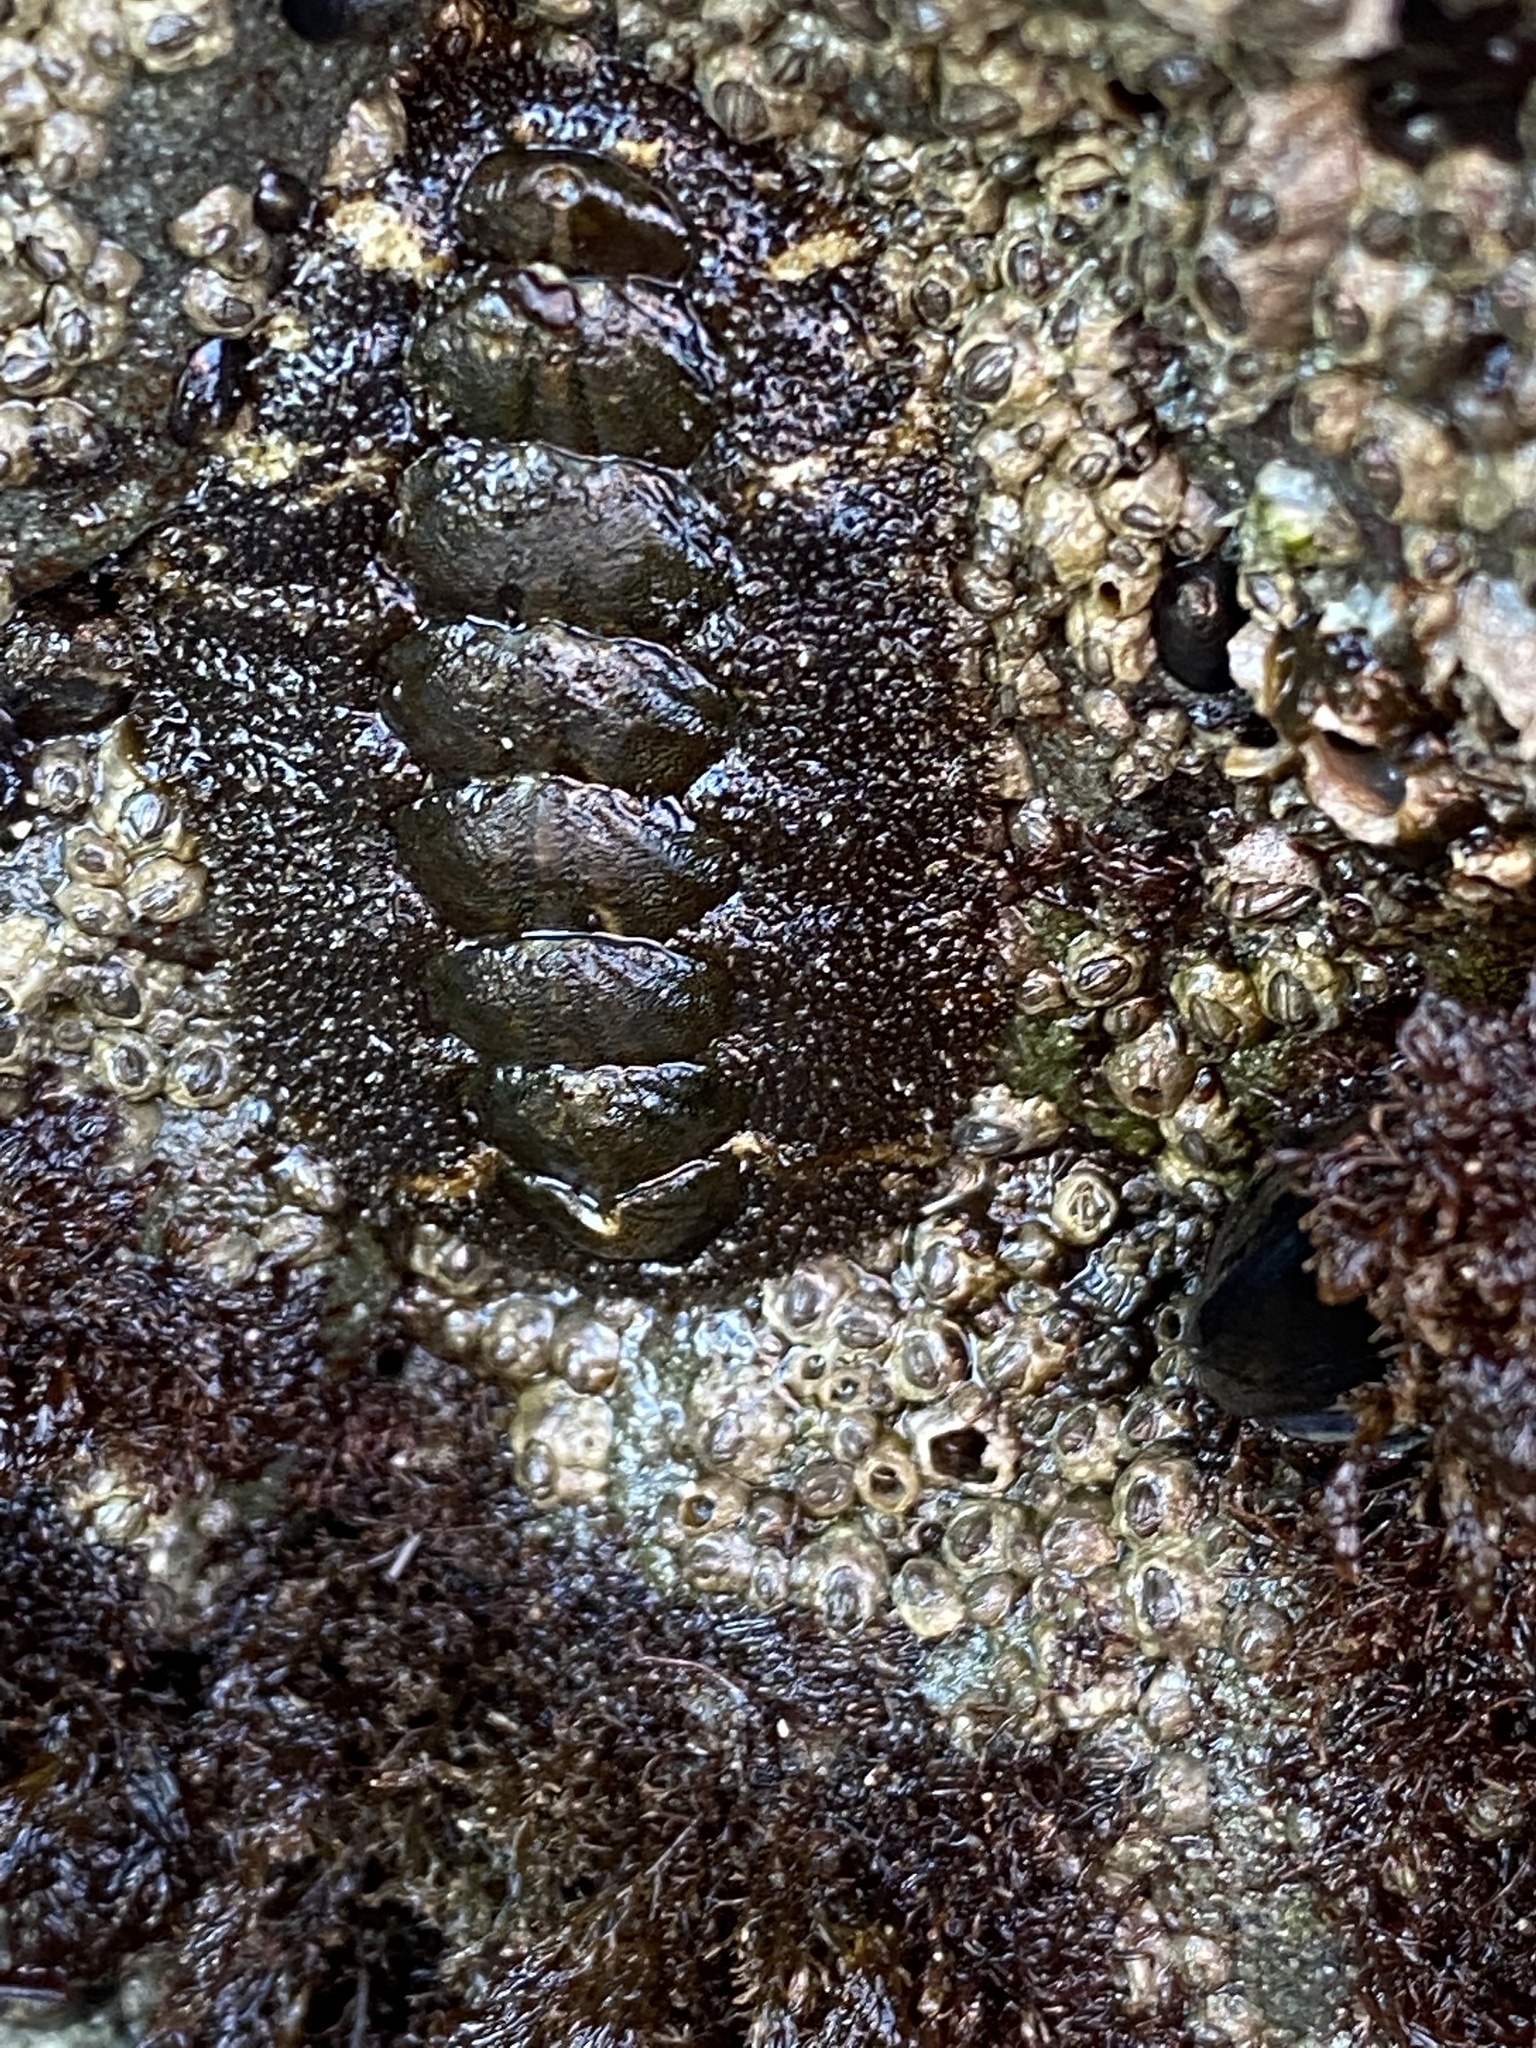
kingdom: Animalia
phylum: Mollusca
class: Polyplacophora
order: Chitonida
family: Tonicellidae
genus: Nuttallina
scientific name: Nuttallina californica
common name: California nuttall chiton
